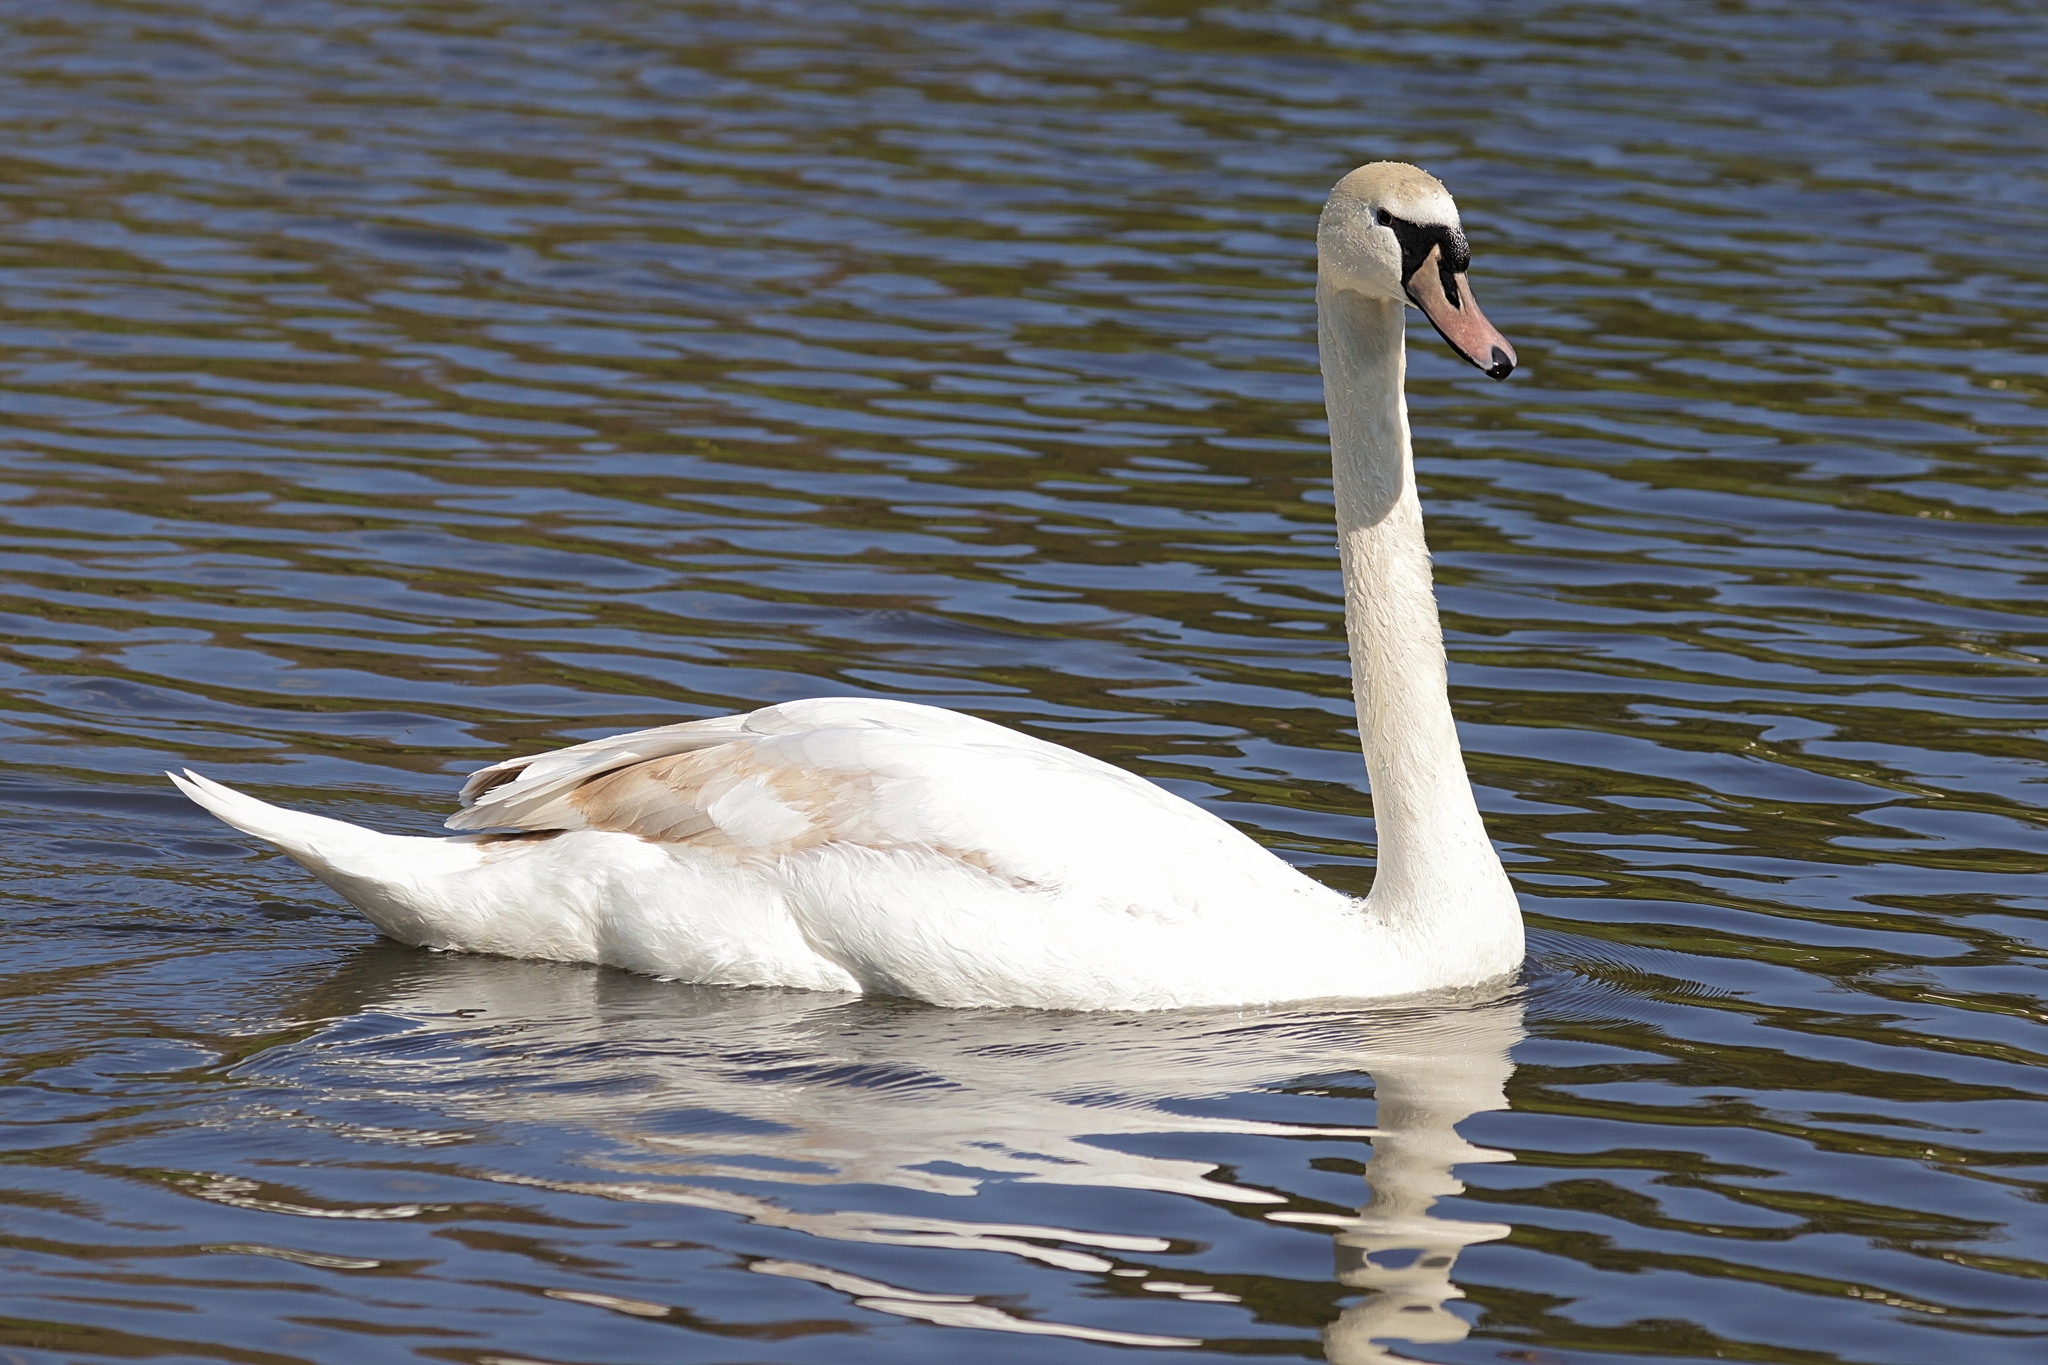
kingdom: Animalia
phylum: Chordata
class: Aves
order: Anseriformes
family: Anatidae
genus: Cygnus
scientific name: Cygnus olor
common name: Mute swan
